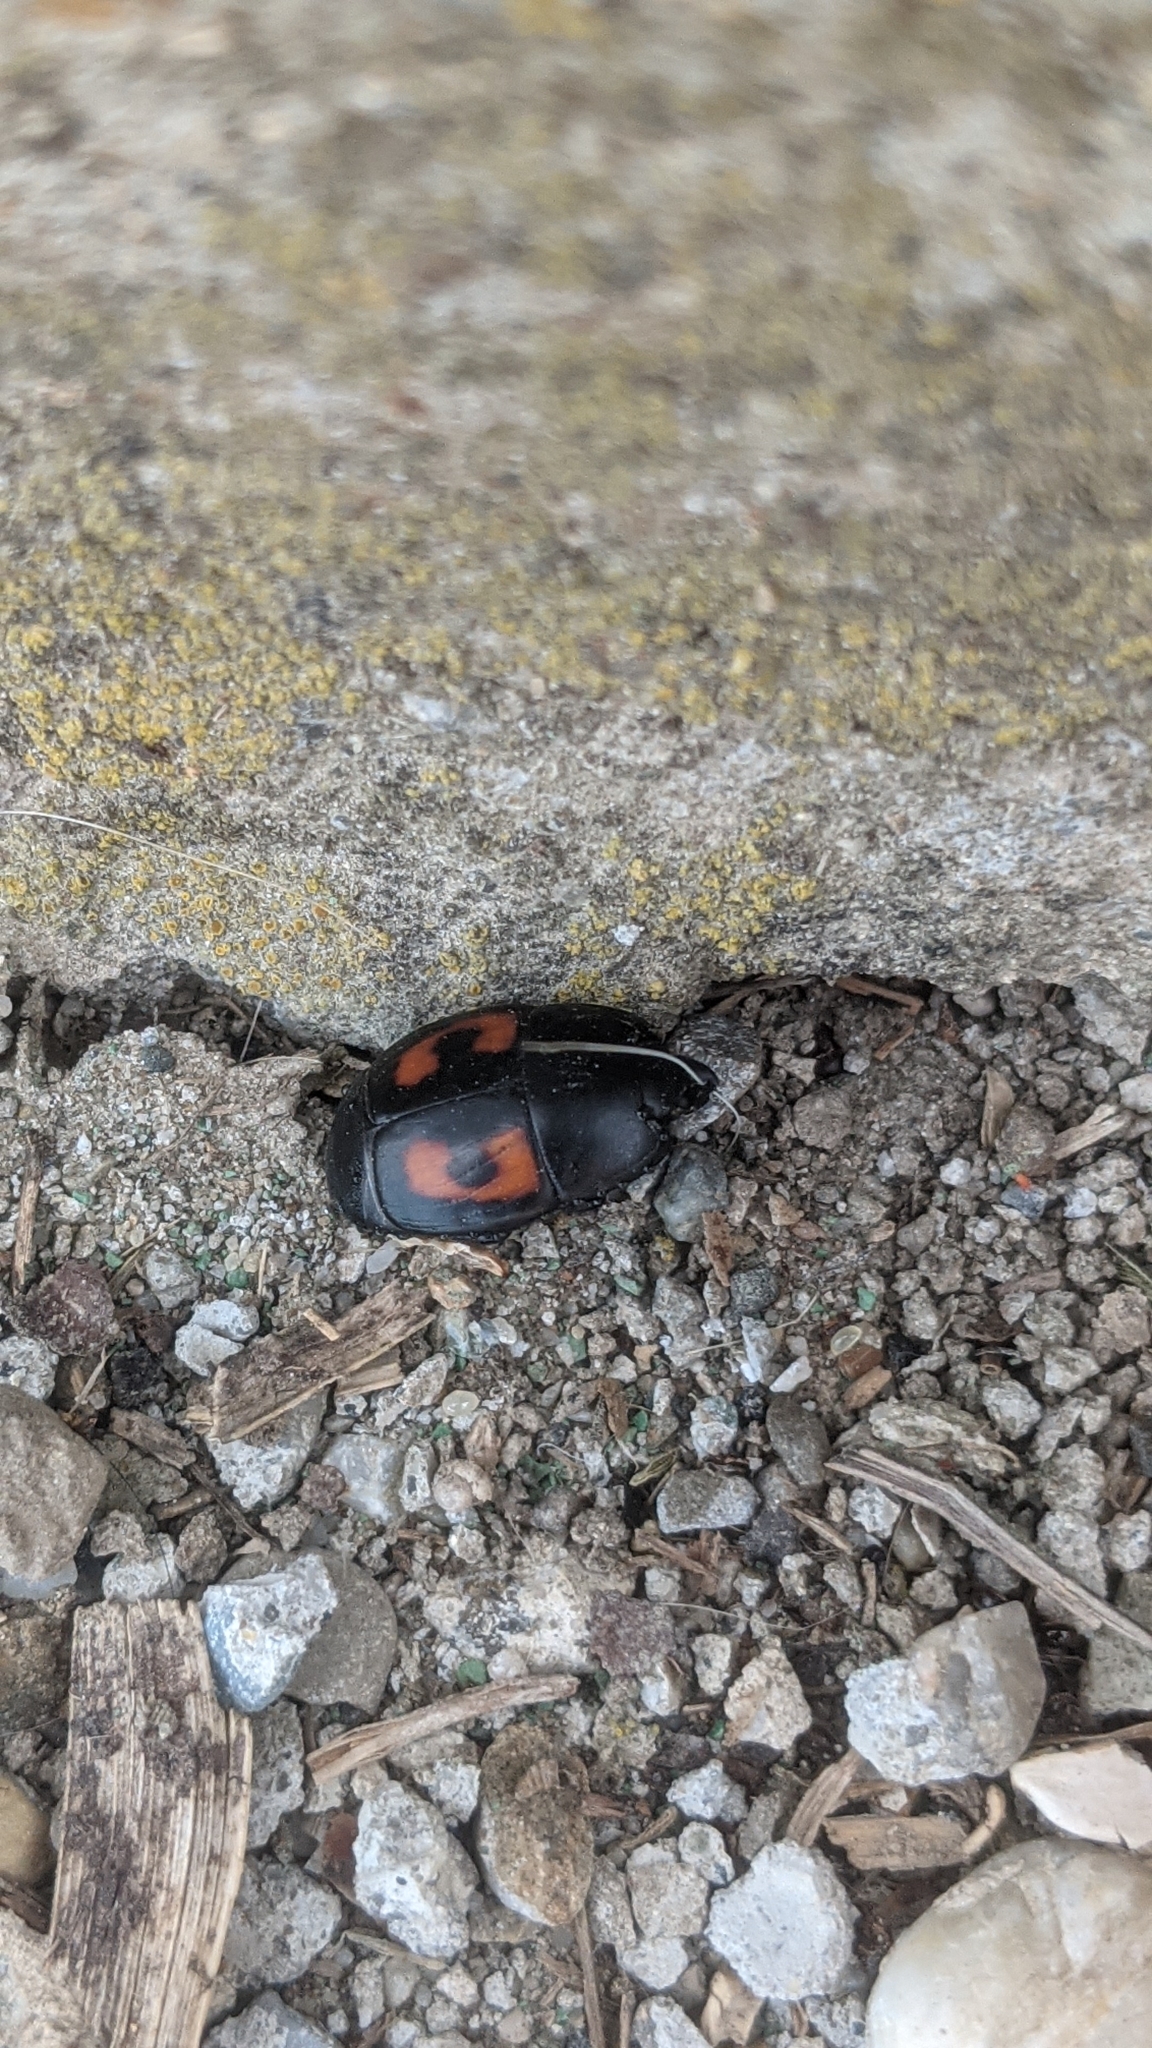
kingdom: Animalia
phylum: Arthropoda
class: Insecta
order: Coleoptera
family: Histeridae
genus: Hister
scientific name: Hister quadrimaculatus
